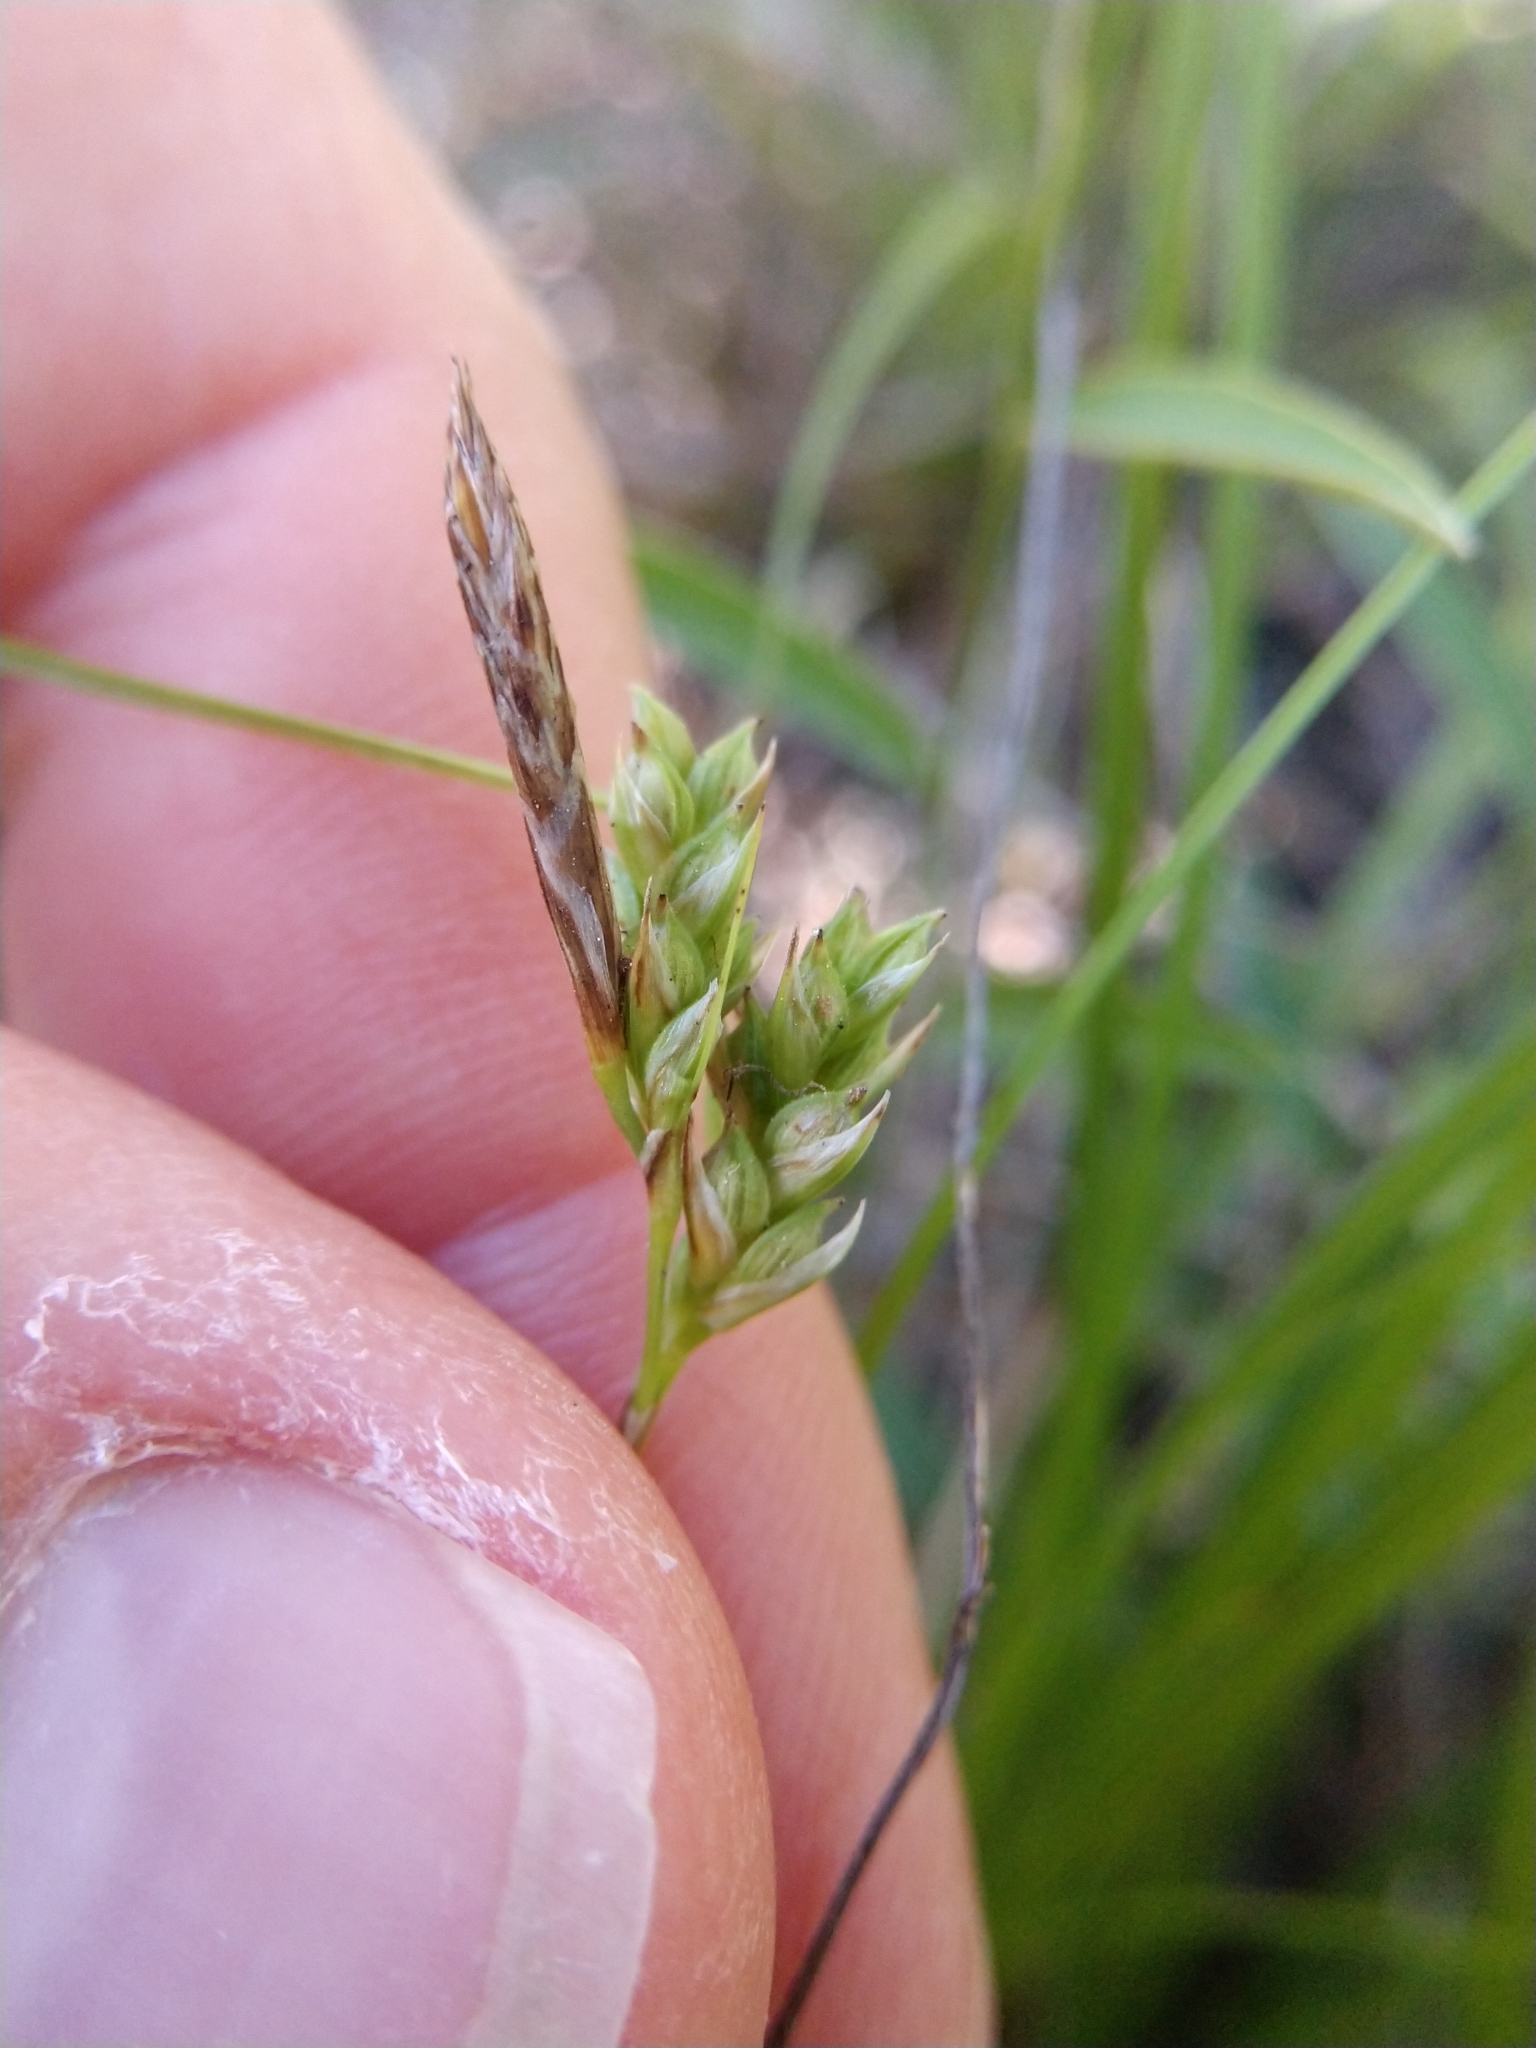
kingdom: Plantae
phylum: Tracheophyta
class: Liliopsida
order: Poales
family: Cyperaceae
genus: Carex
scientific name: Carex planostachys
